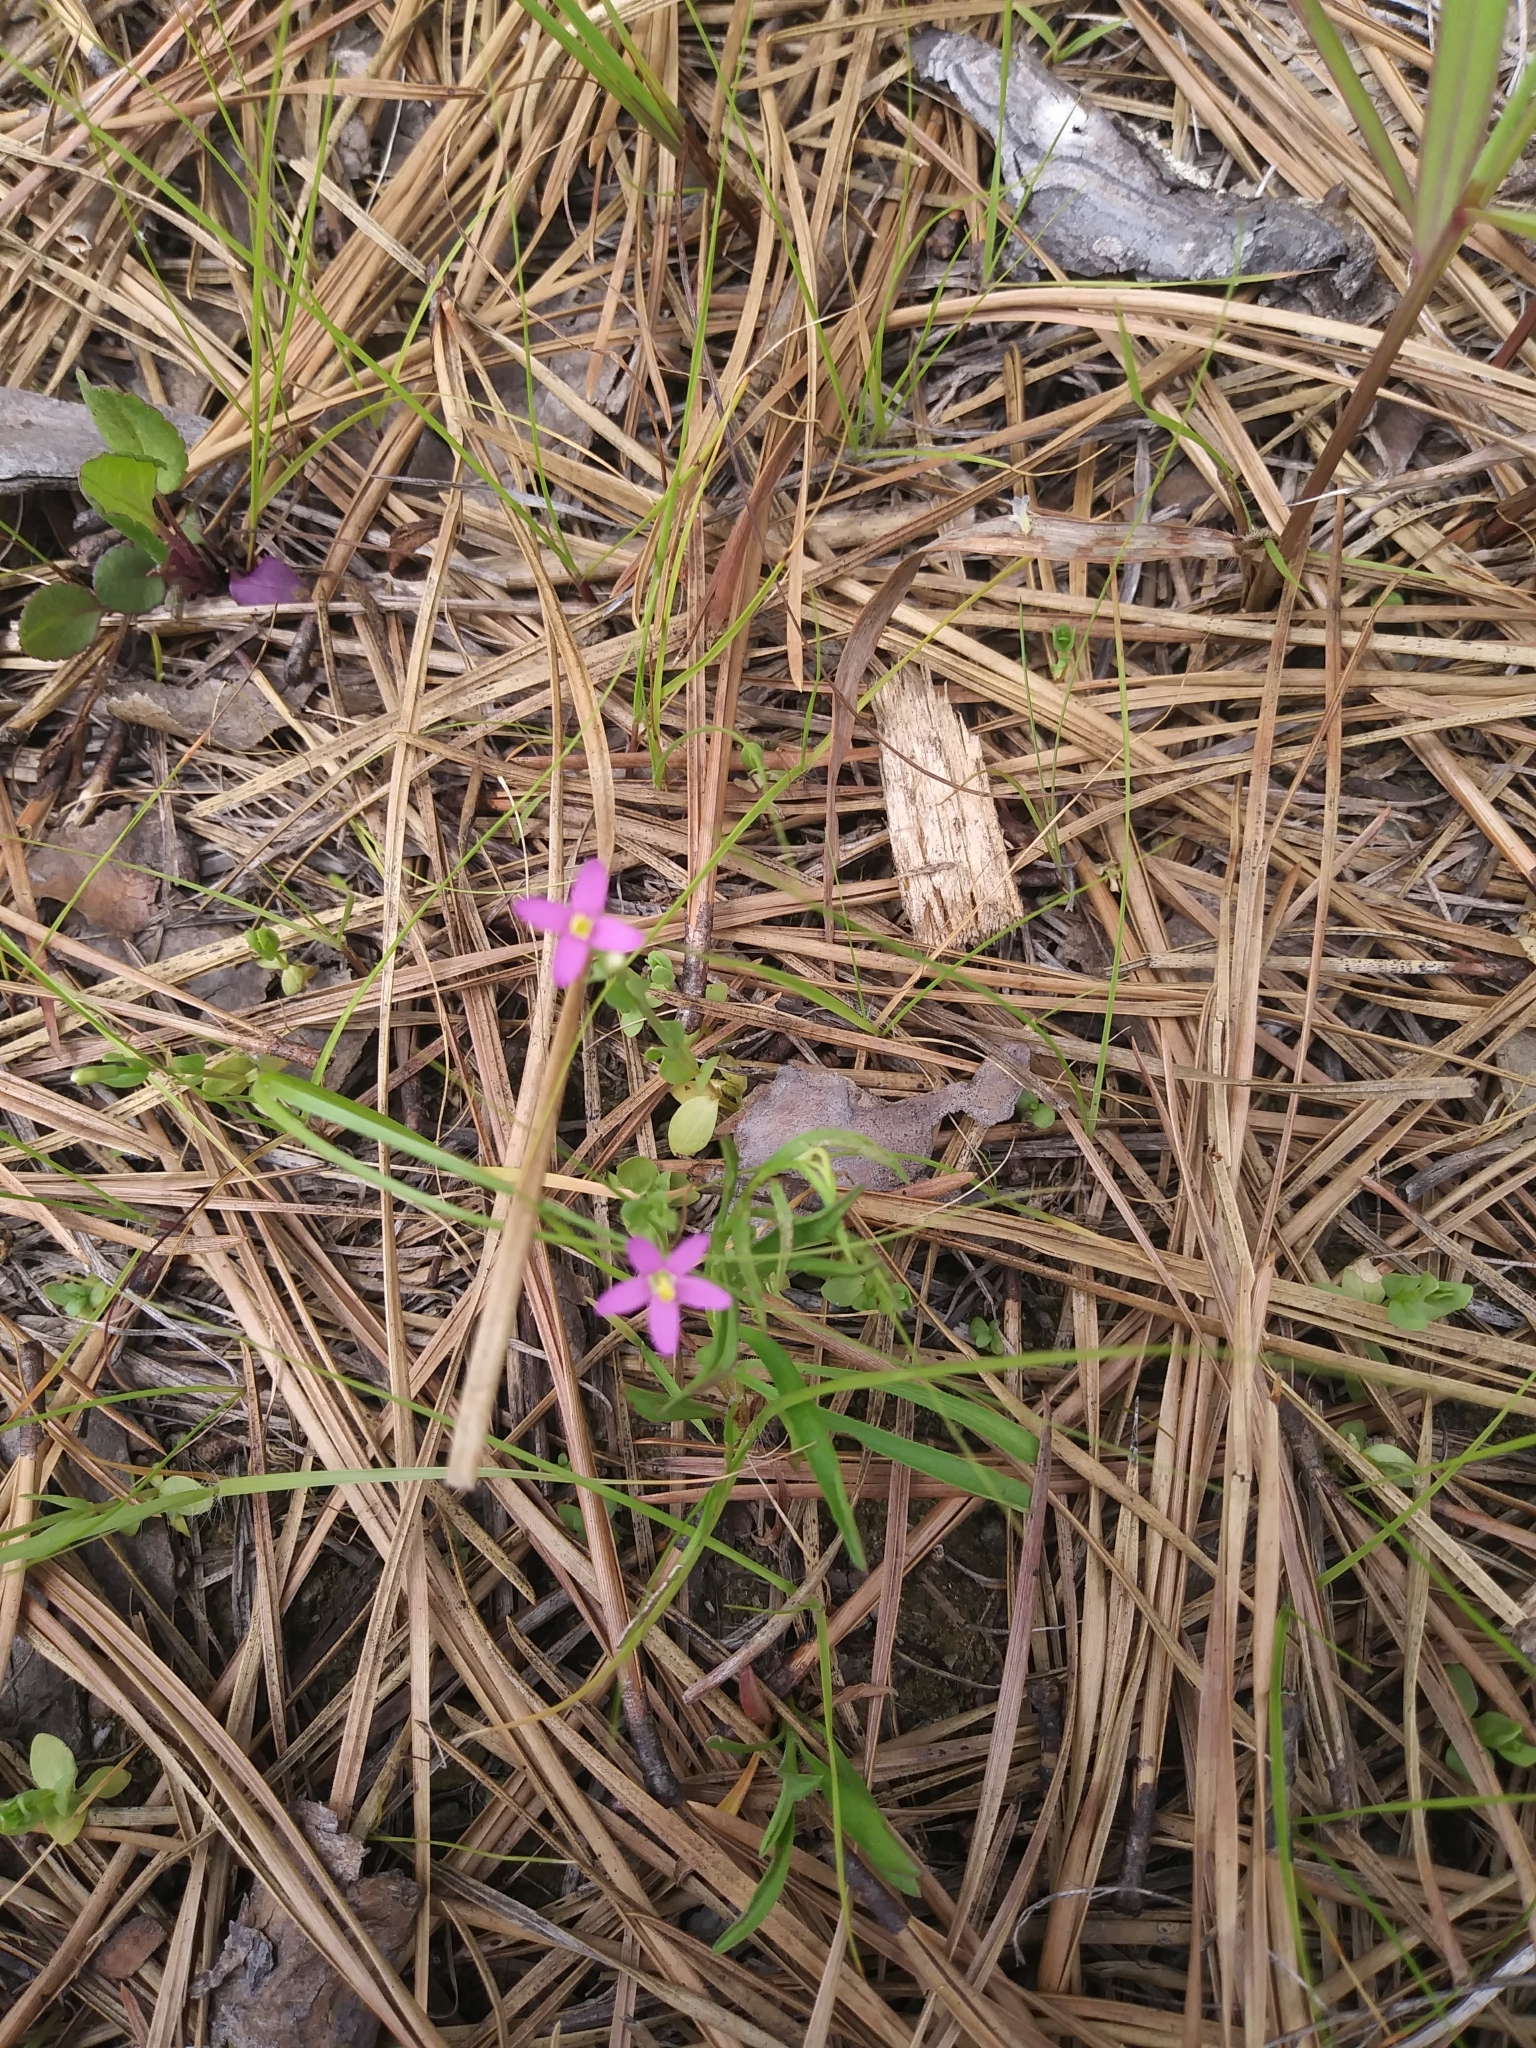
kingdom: Plantae
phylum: Tracheophyta
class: Magnoliopsida
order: Gentianales
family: Gentianaceae
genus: Centaurium
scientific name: Centaurium pulchellum
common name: Lesser centaury
